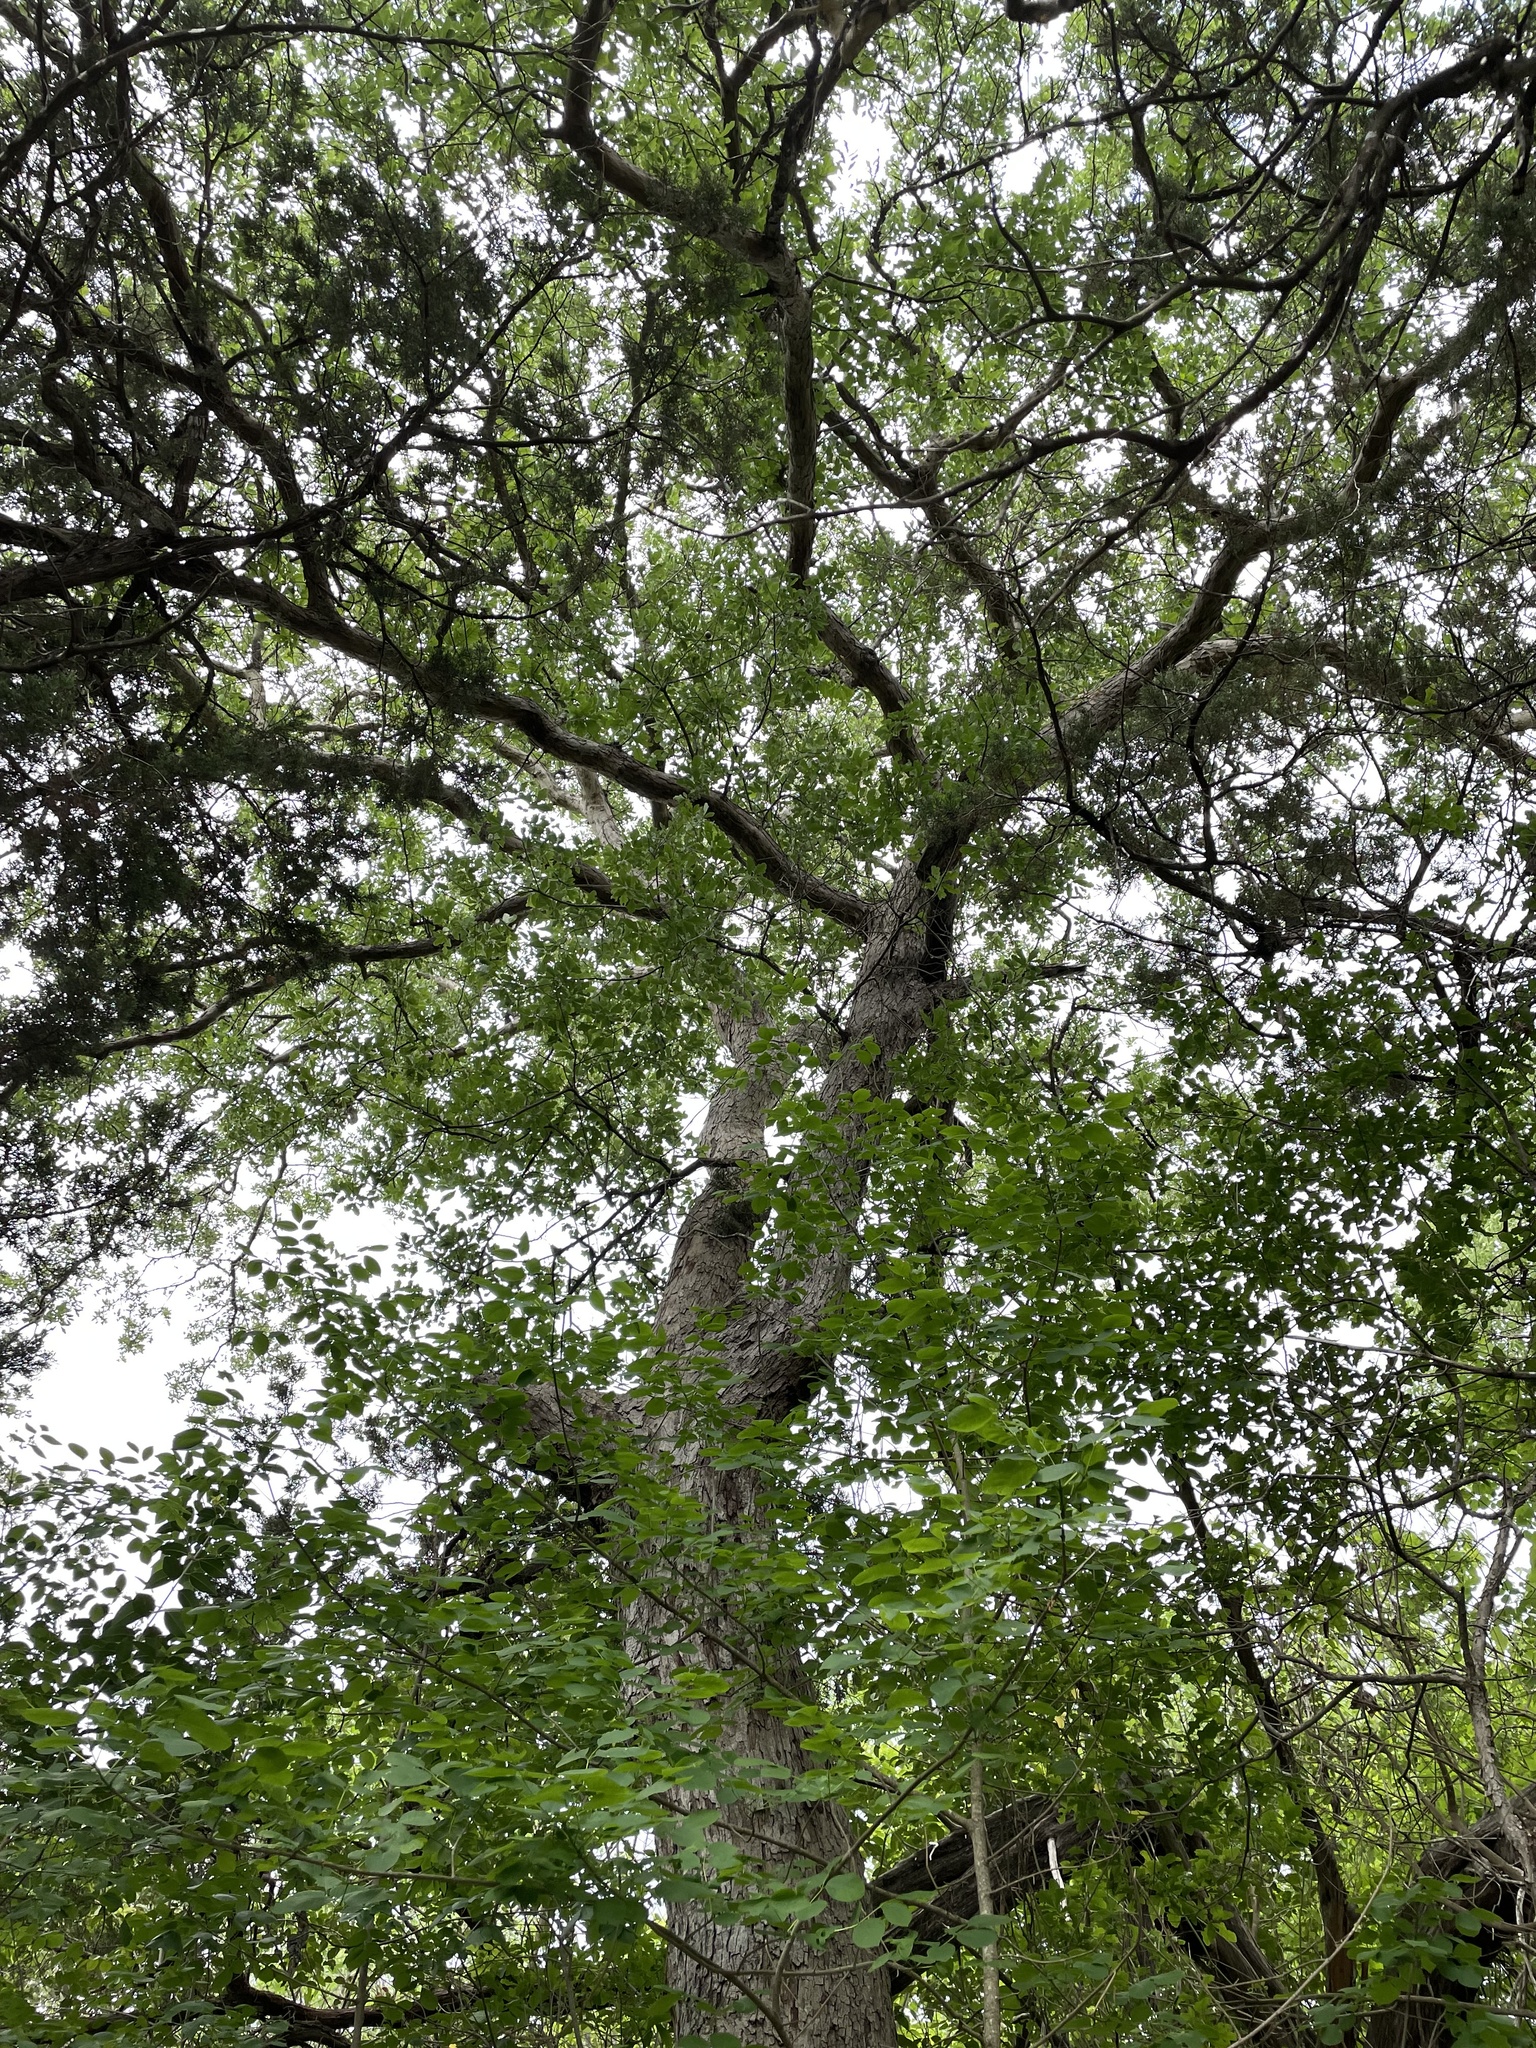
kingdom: Plantae
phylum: Tracheophyta
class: Magnoliopsida
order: Fagales
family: Fagaceae
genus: Quercus
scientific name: Quercus sinuata
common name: Durand oak
